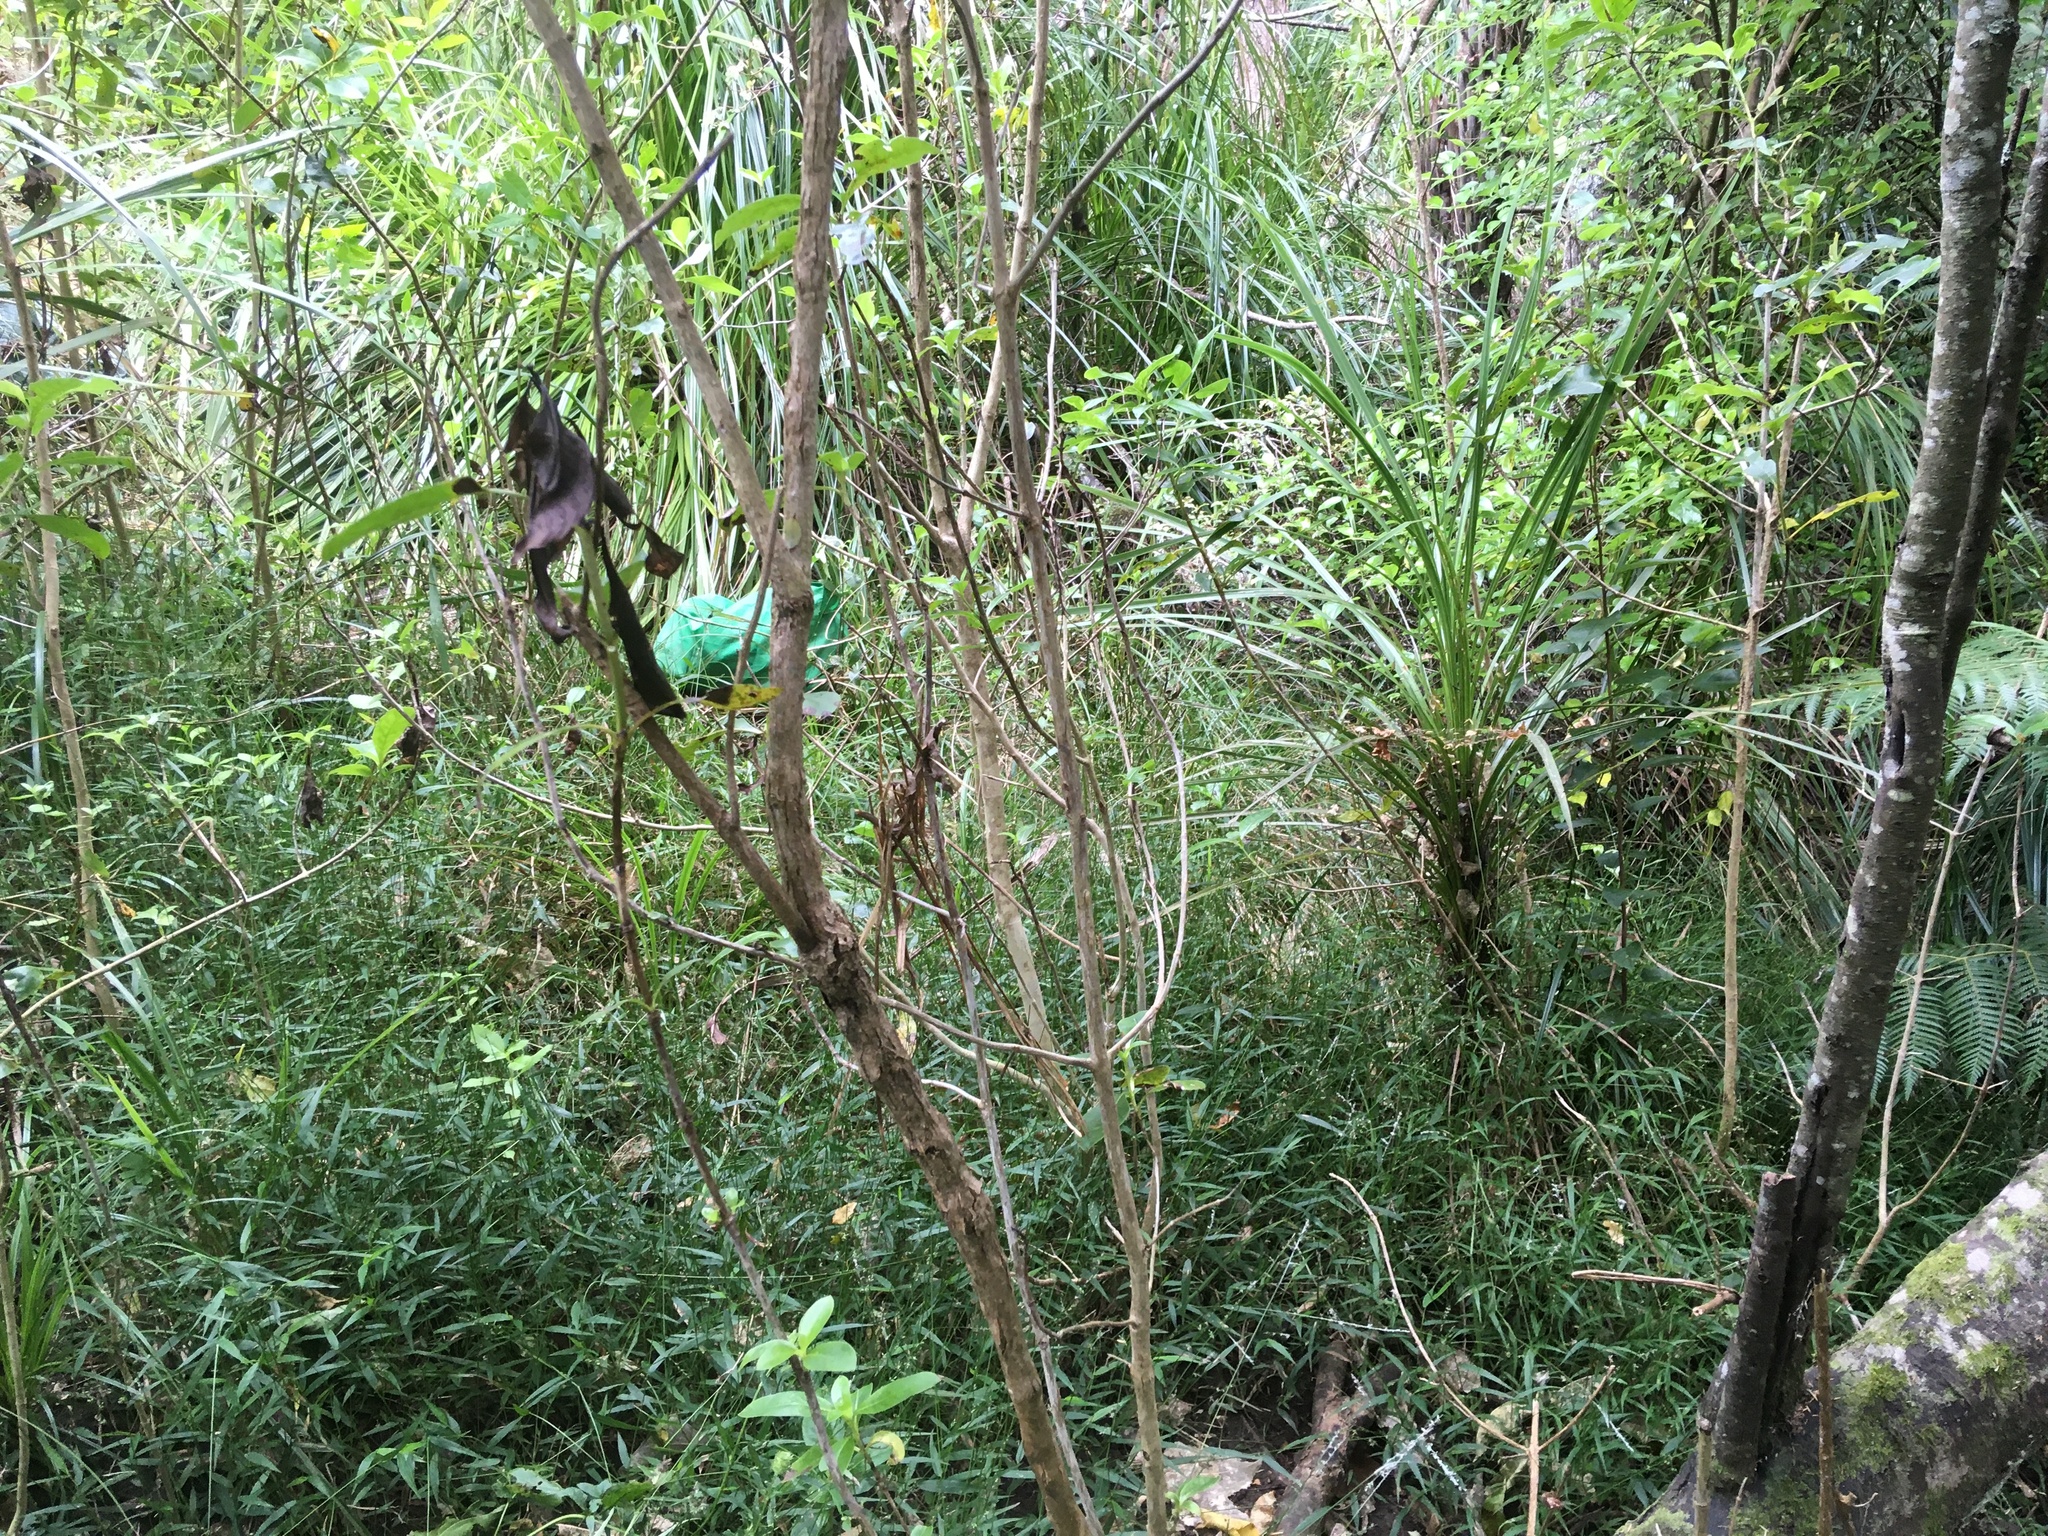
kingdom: Plantae
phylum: Tracheophyta
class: Magnoliopsida
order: Gentianales
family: Rubiaceae
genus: Coprosma
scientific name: Coprosma robusta
